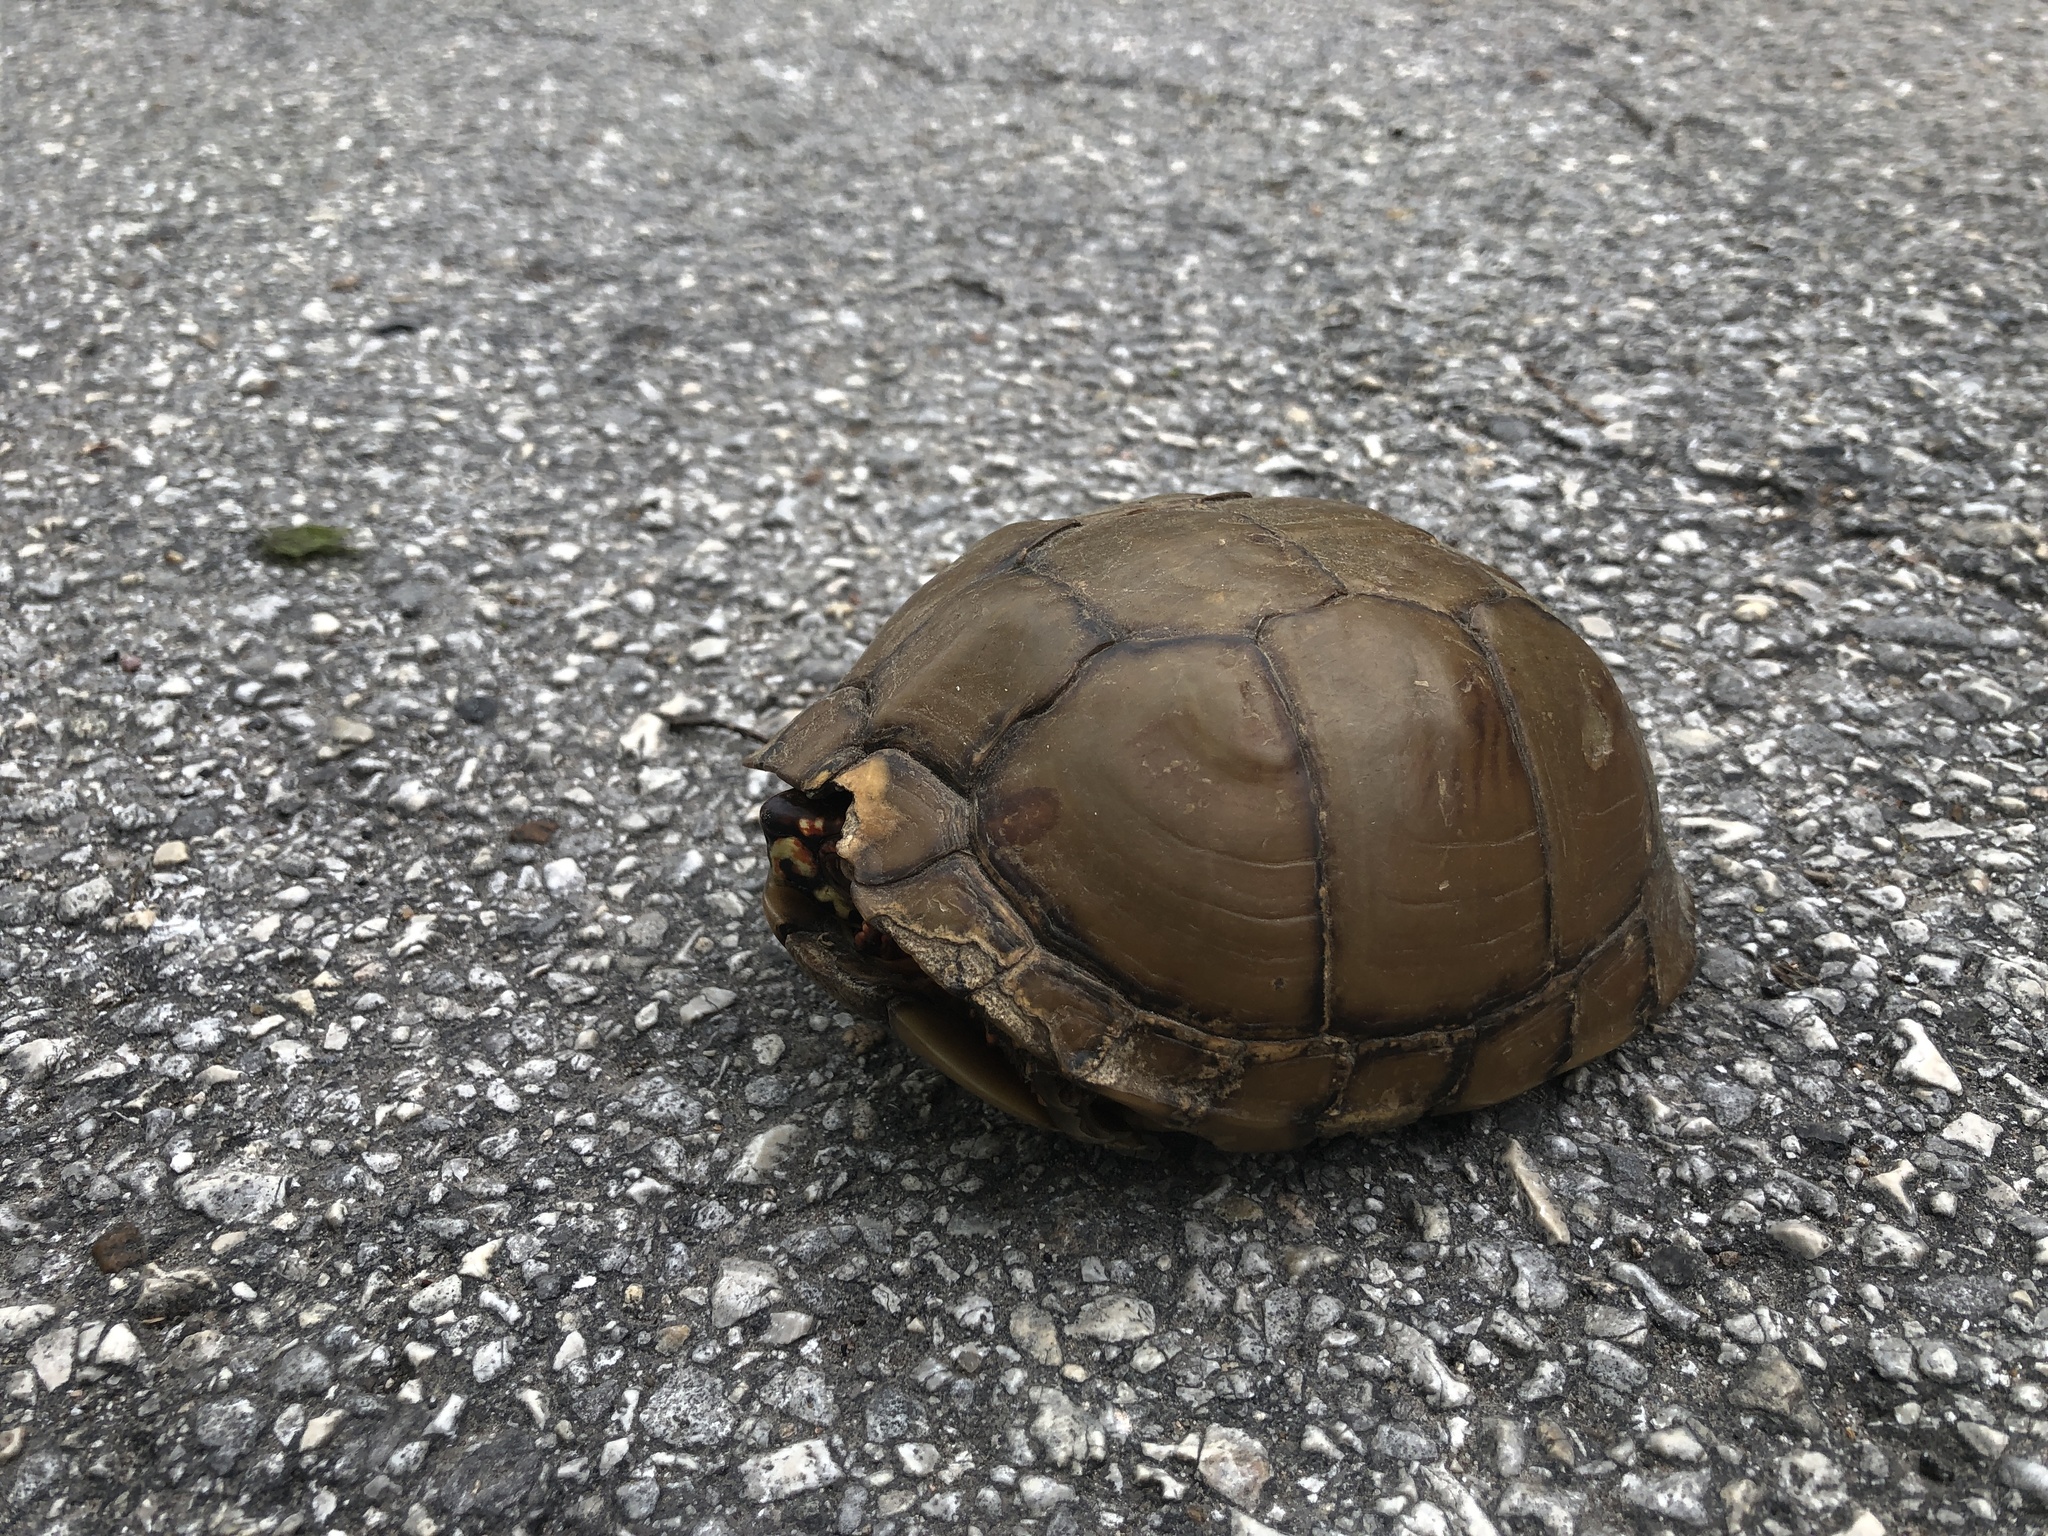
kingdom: Animalia
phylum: Chordata
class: Testudines
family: Emydidae
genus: Terrapene
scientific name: Terrapene carolina
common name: Common box turtle
